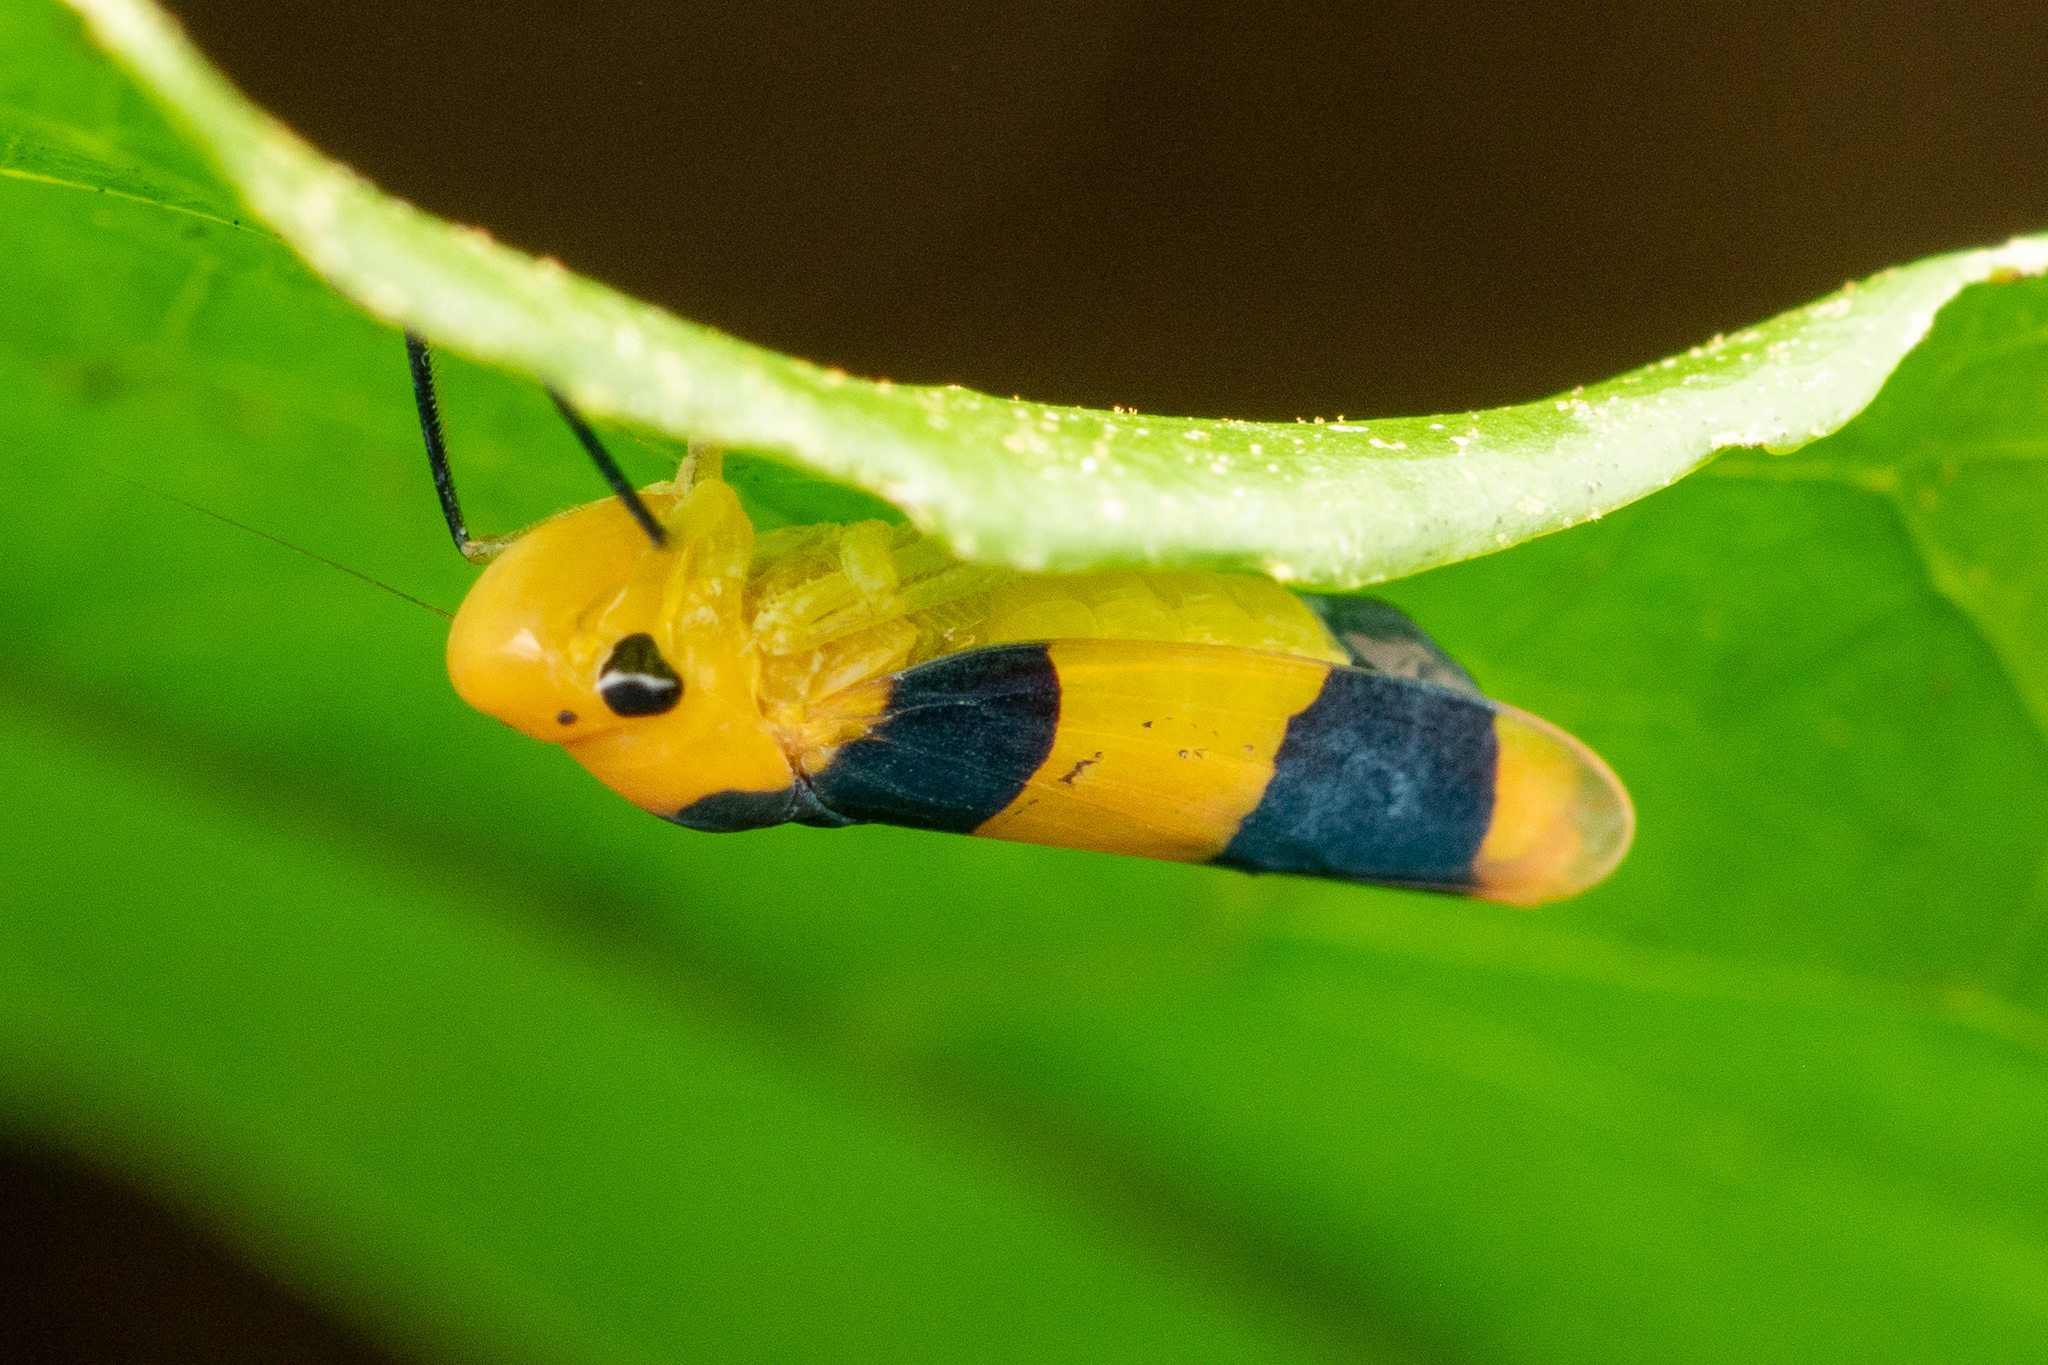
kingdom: Animalia
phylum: Arthropoda
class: Insecta
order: Hemiptera
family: Cicadellidae
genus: Janastana
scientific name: Janastana taeniata
